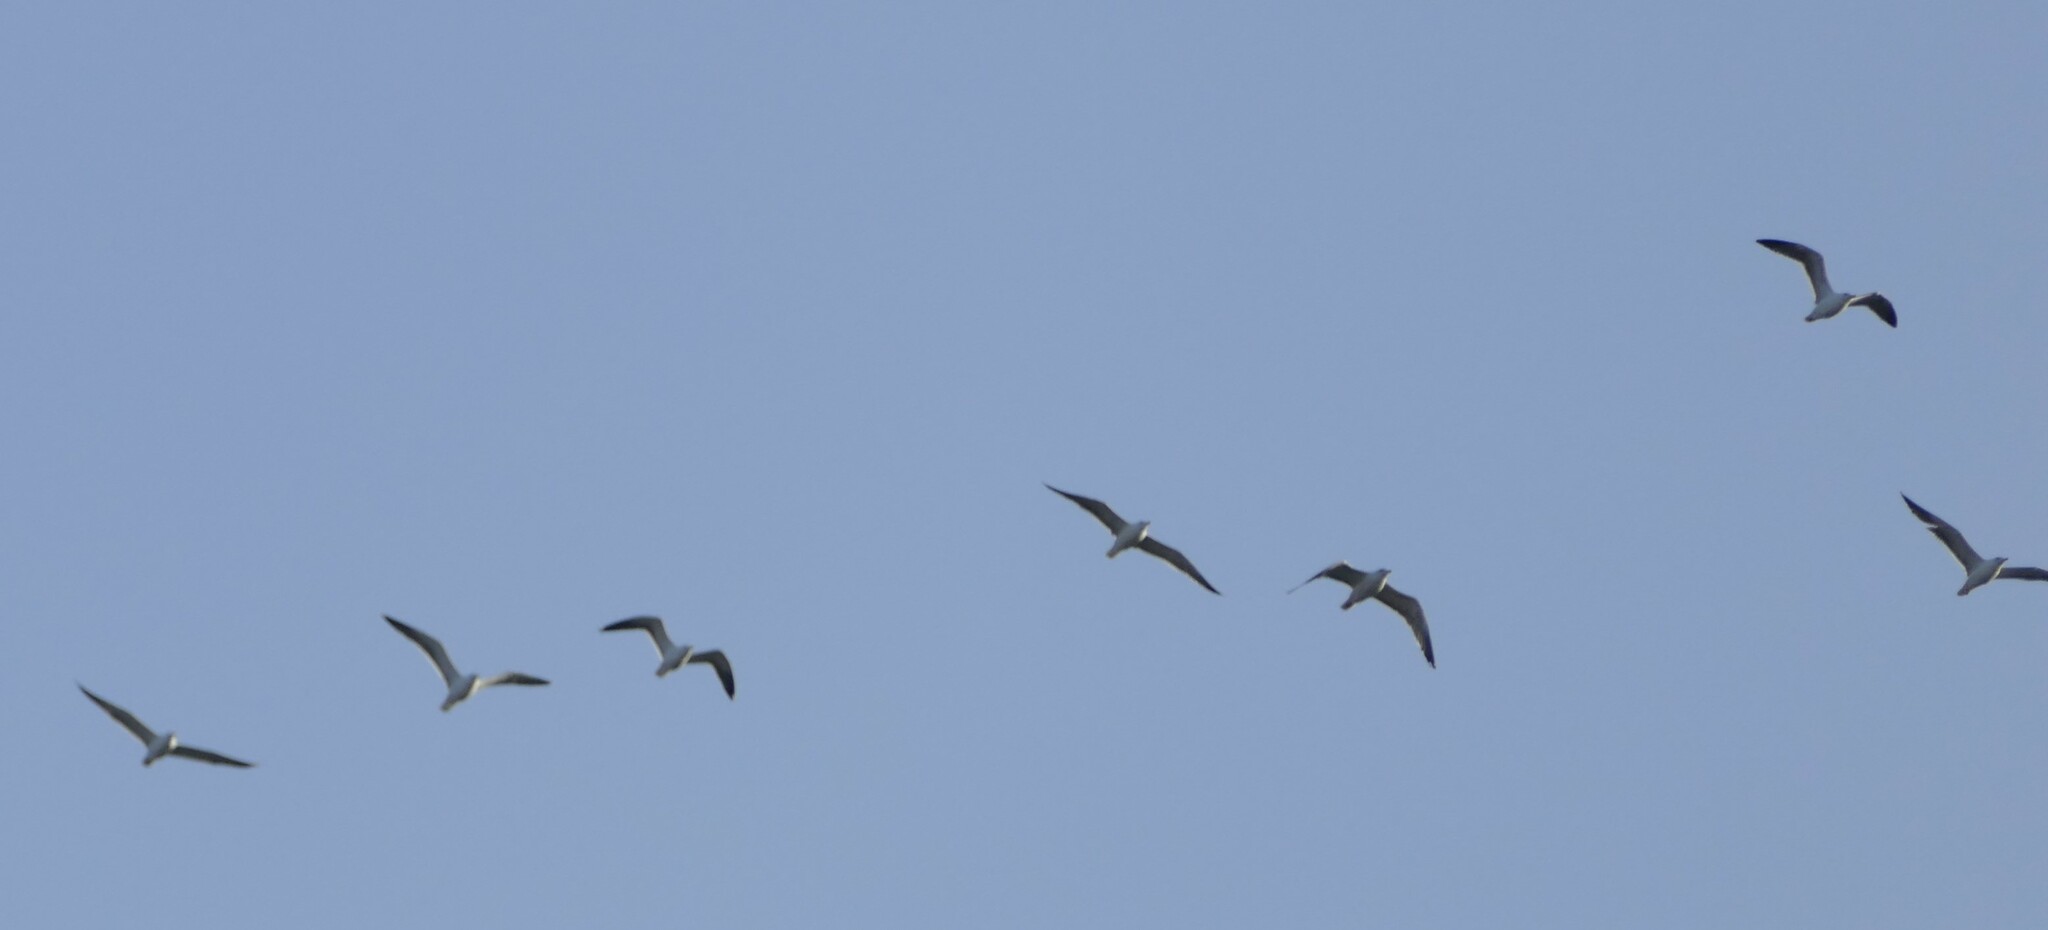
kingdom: Animalia
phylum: Chordata
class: Aves
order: Charadriiformes
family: Laridae
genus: Larus
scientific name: Larus fuscus
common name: Lesser black-backed gull
